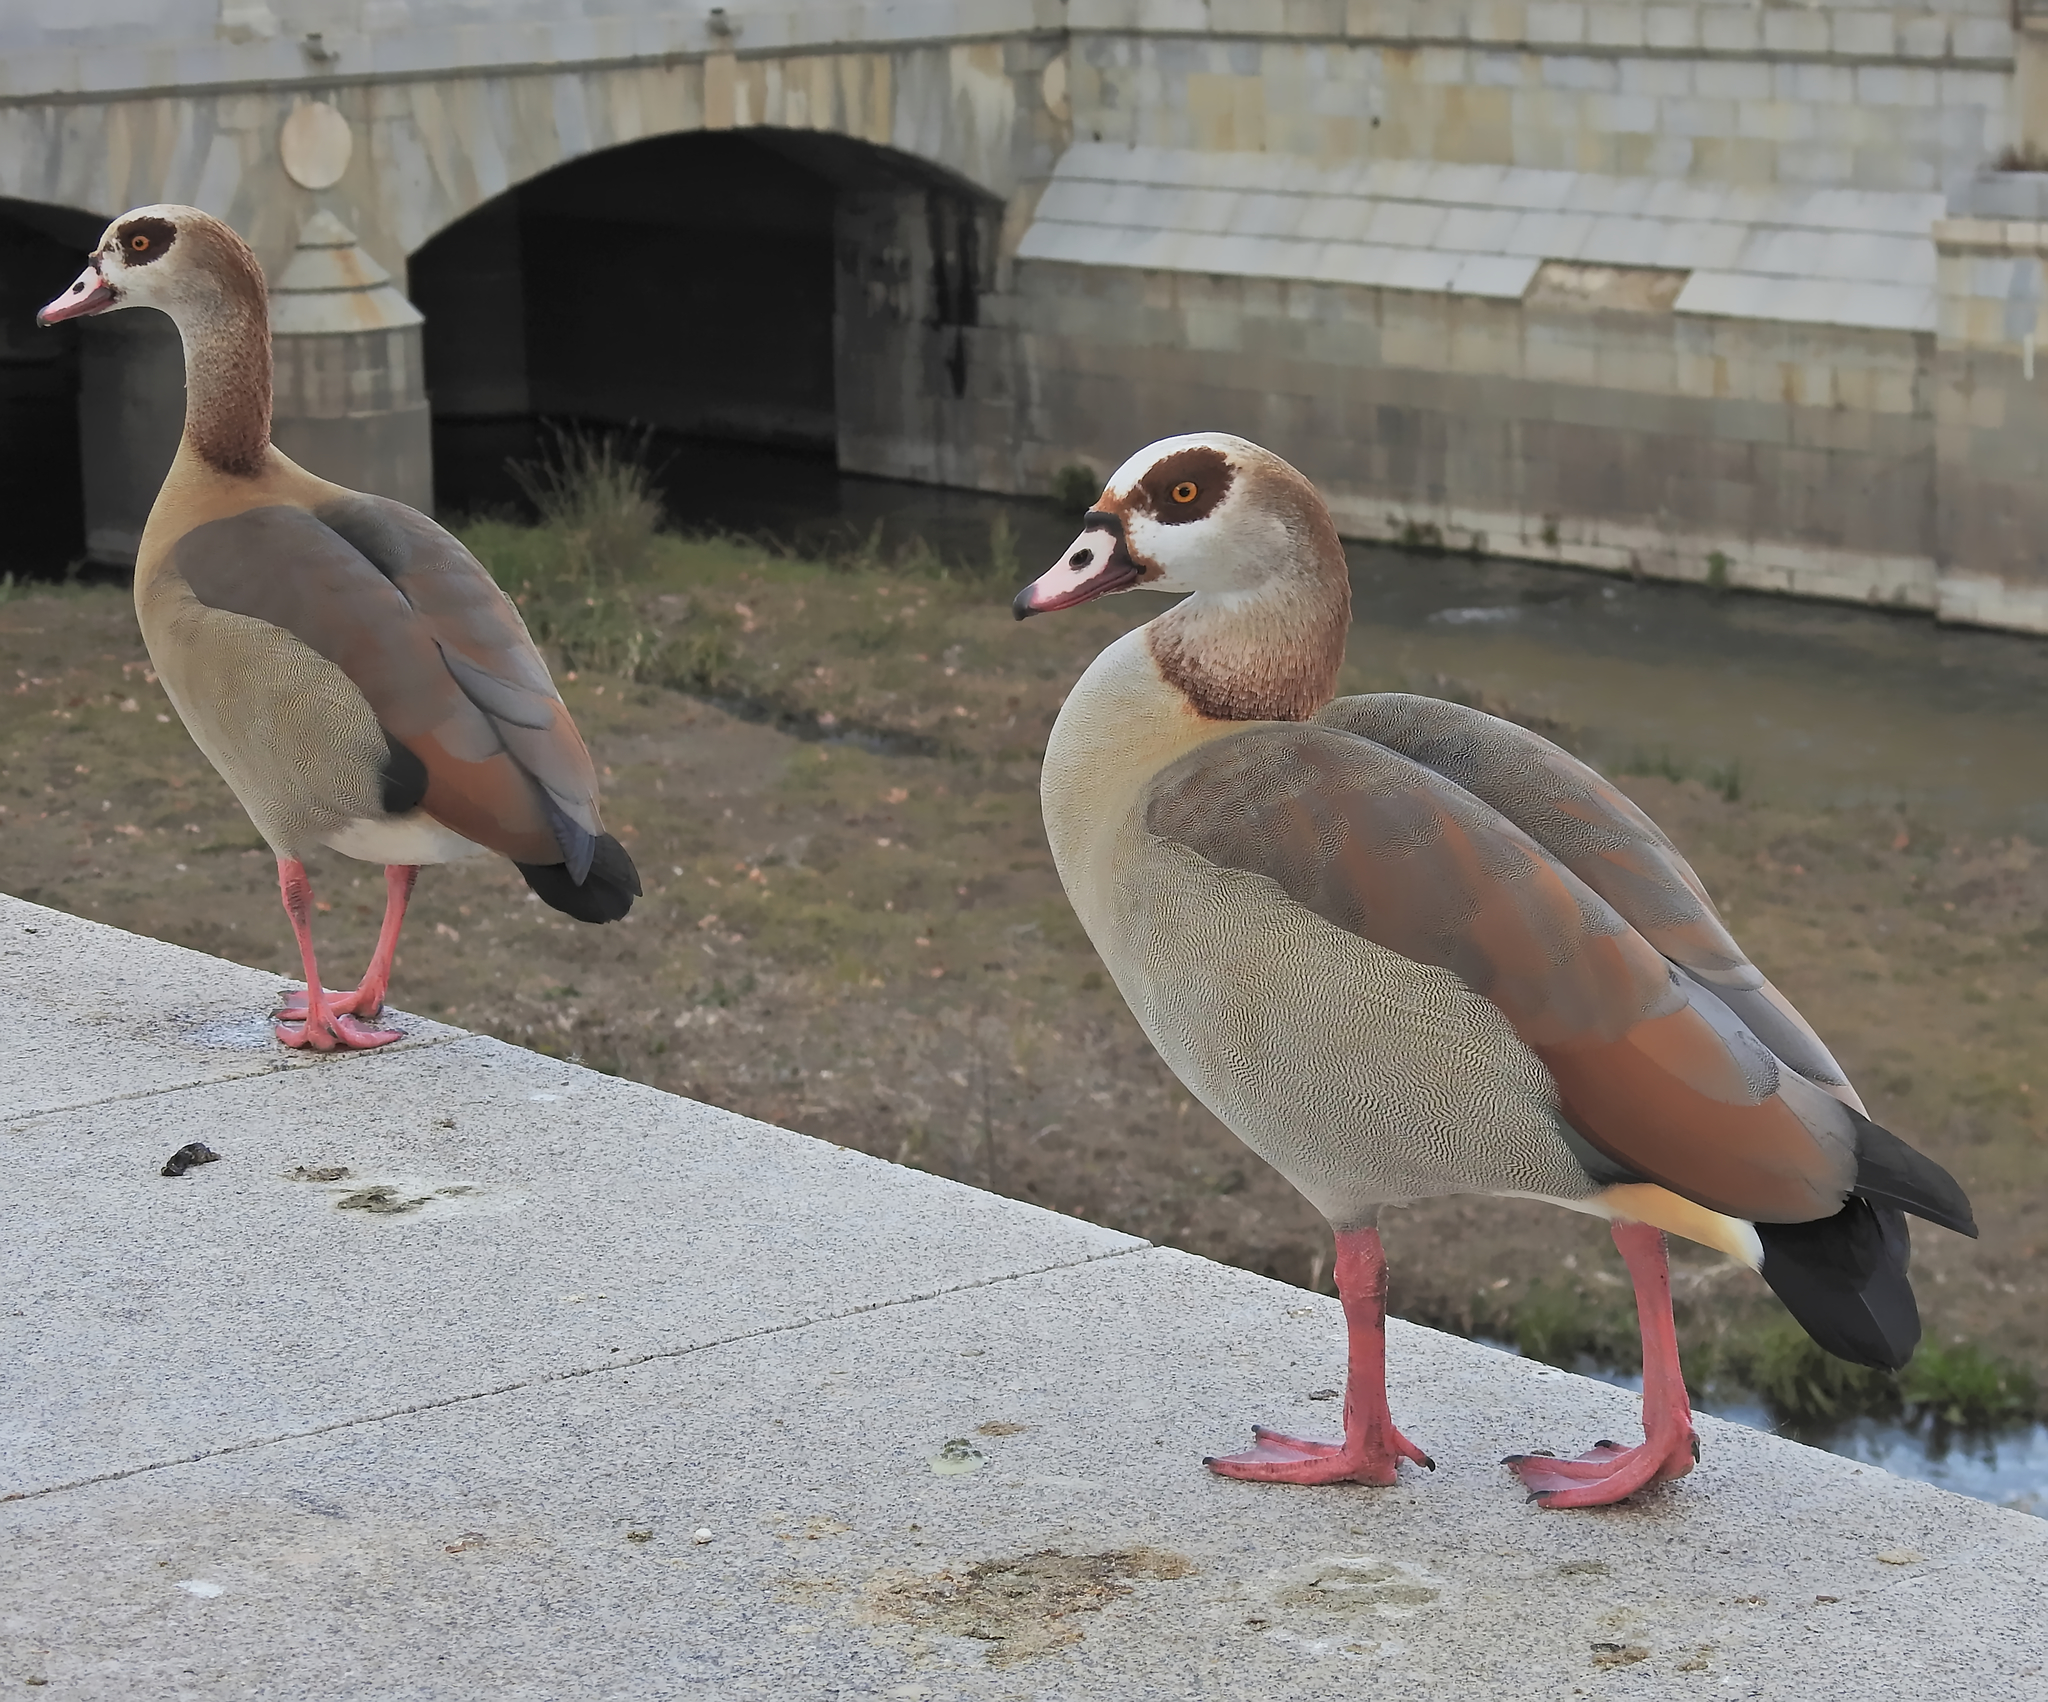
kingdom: Animalia
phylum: Chordata
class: Aves
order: Anseriformes
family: Anatidae
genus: Alopochen
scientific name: Alopochen aegyptiaca
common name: Egyptian goose
